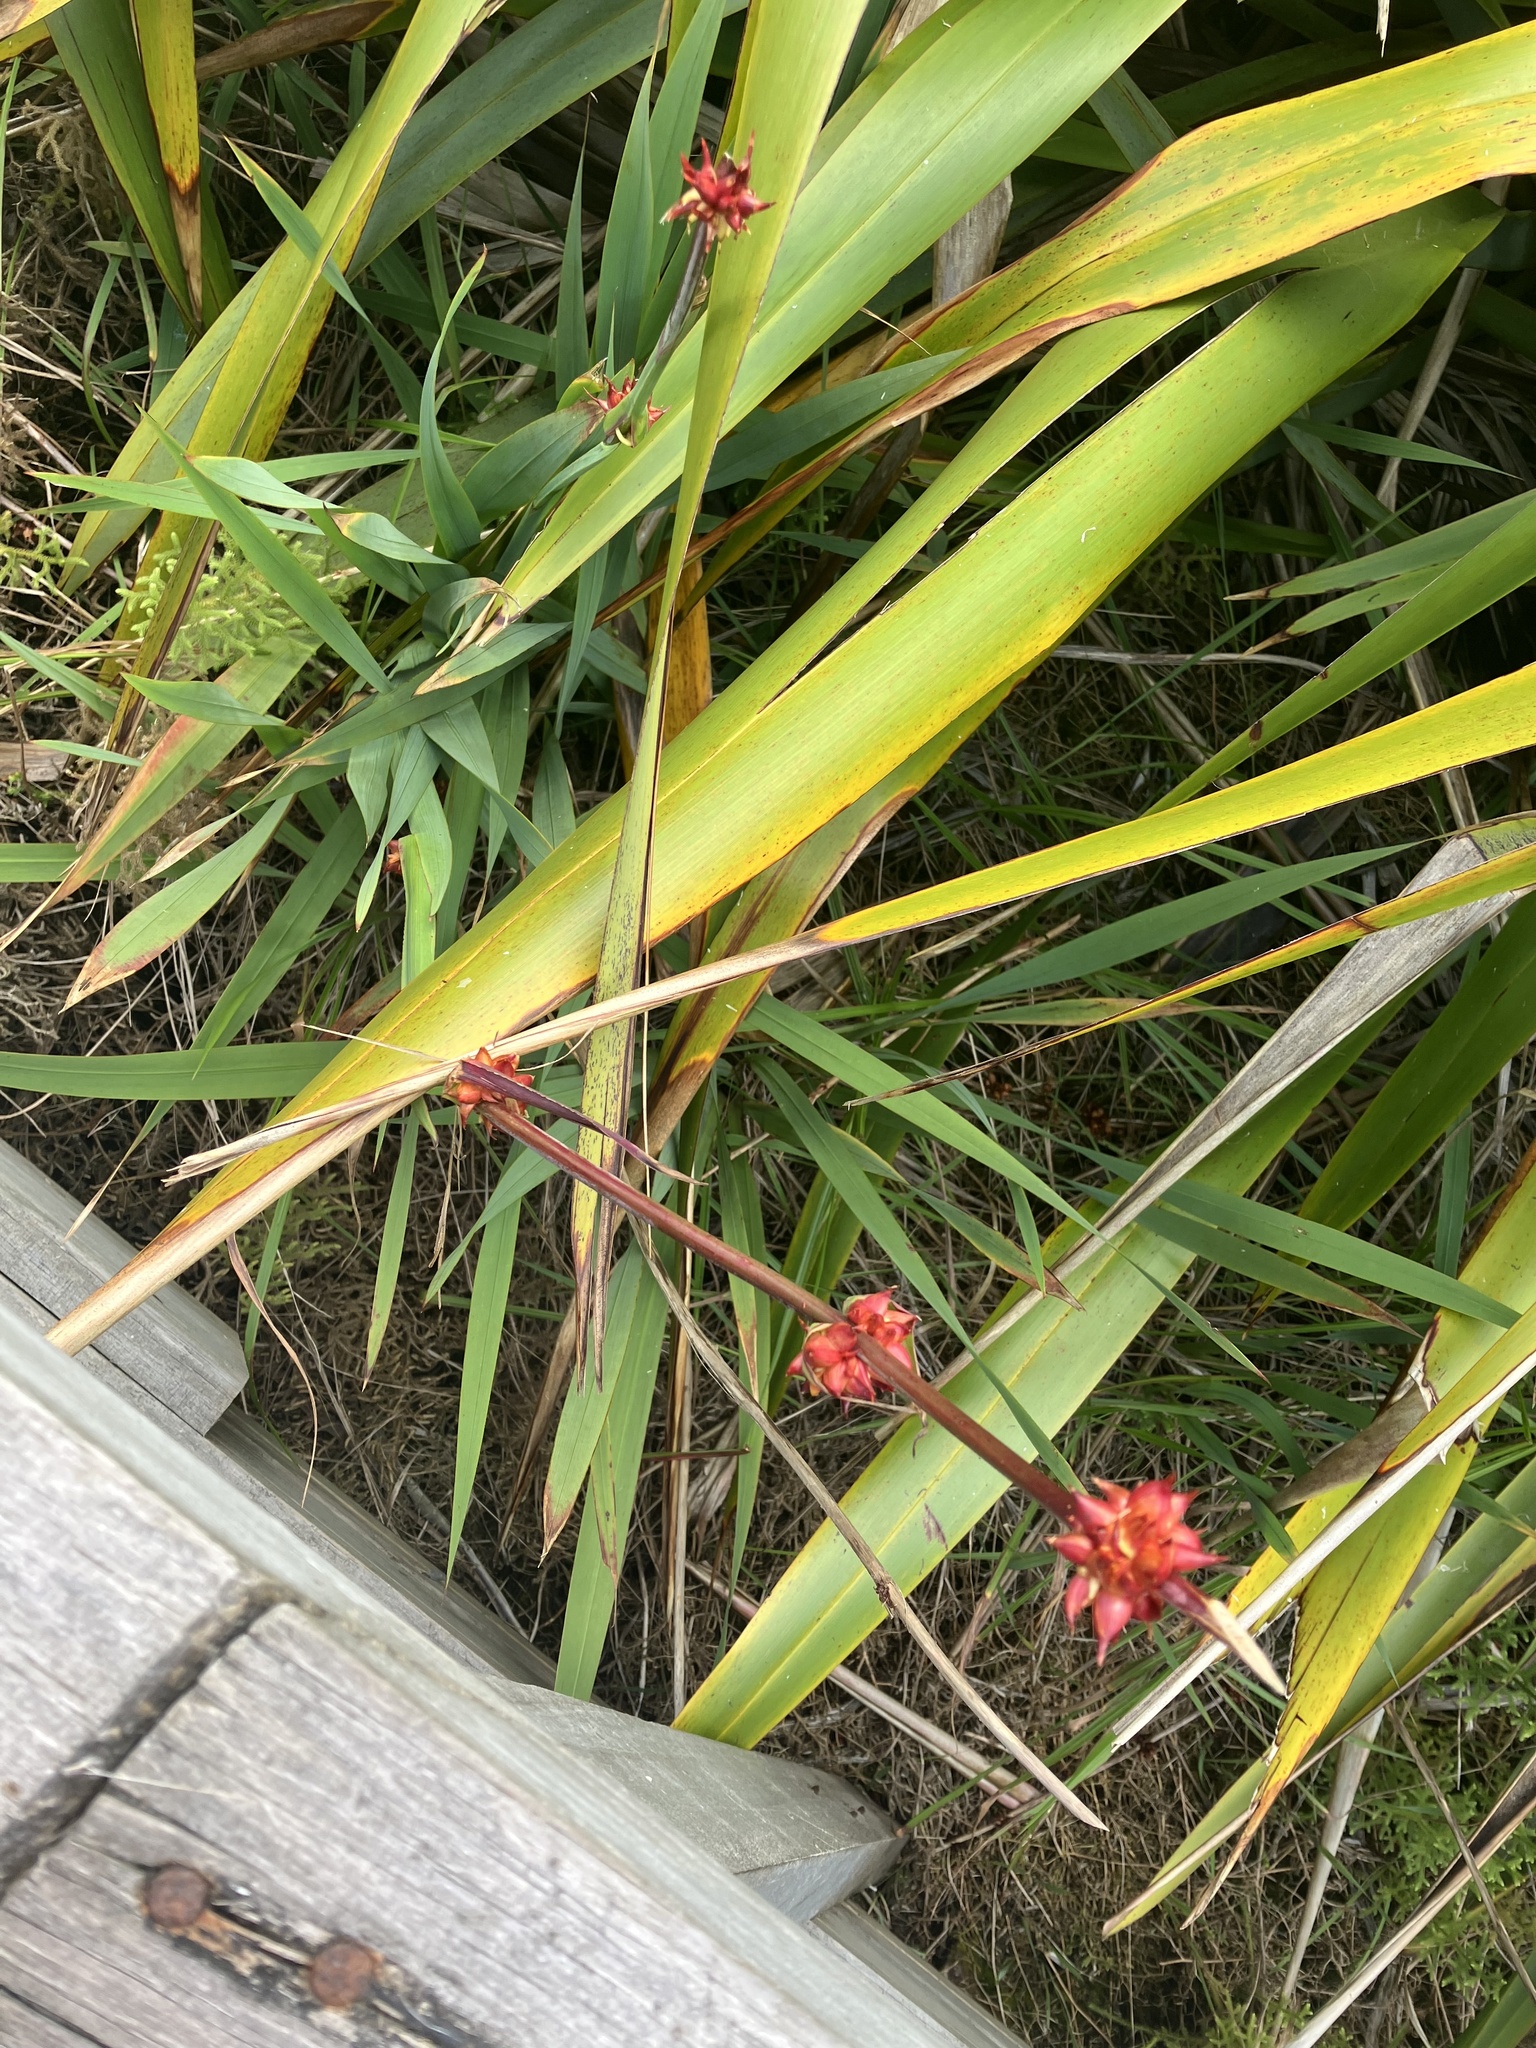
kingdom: Plantae
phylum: Tracheophyta
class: Liliopsida
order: Asparagales
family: Iridaceae
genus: Watsonia
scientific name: Watsonia meriana
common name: Bulbil bugle-lily
